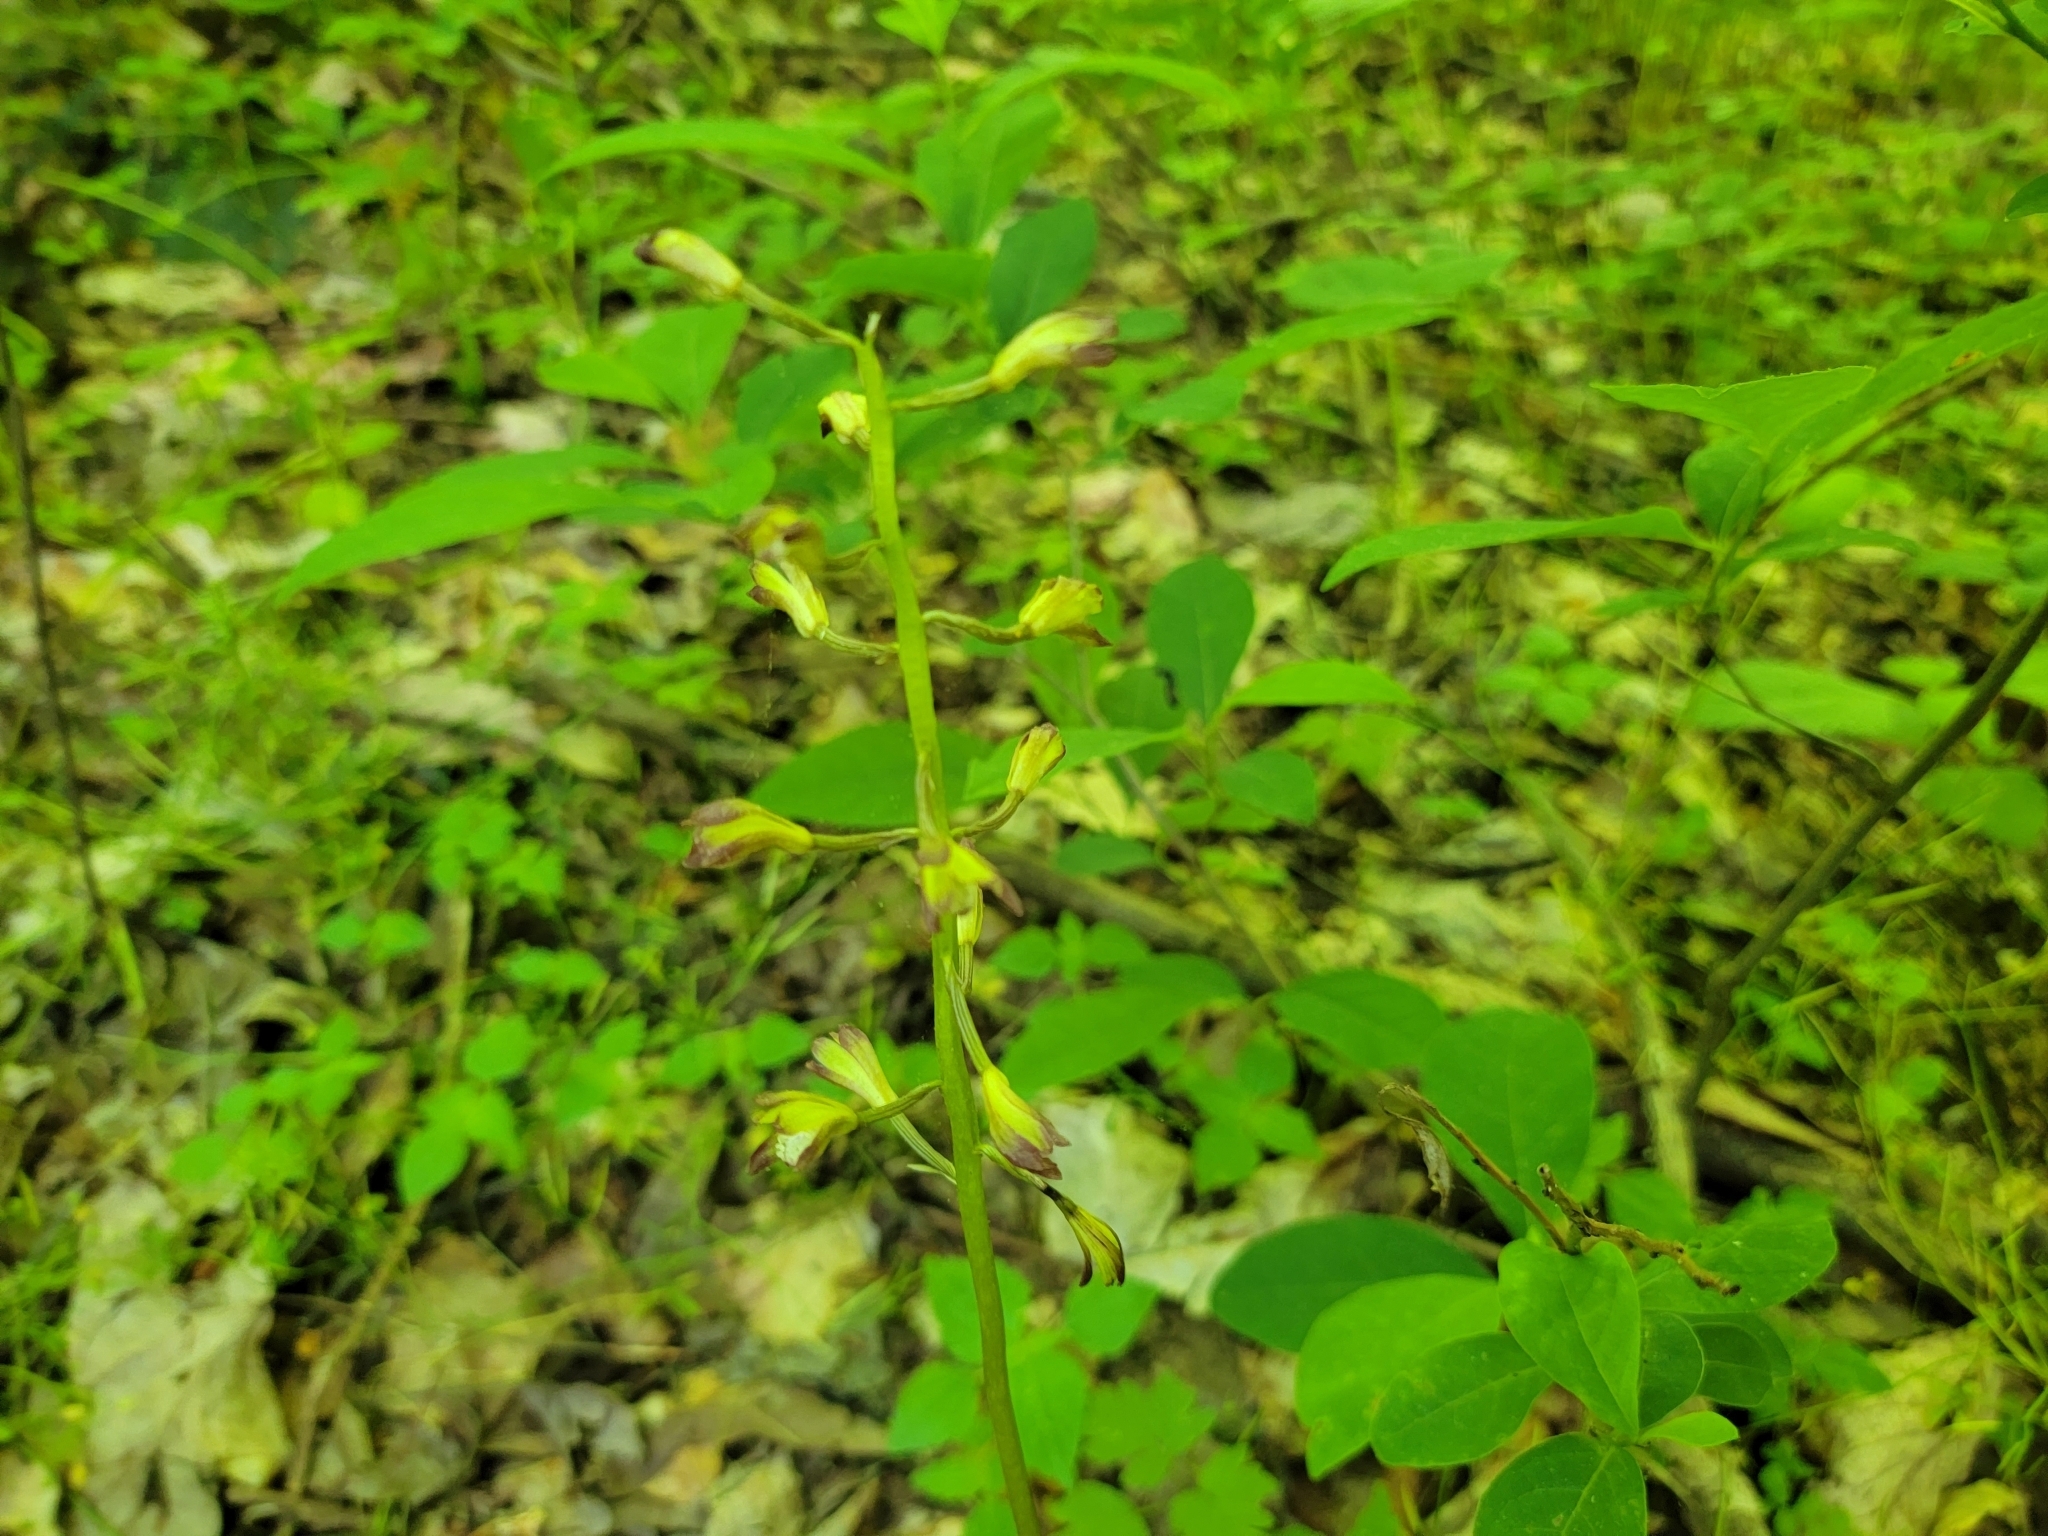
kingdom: Plantae
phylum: Tracheophyta
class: Liliopsida
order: Asparagales
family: Orchidaceae
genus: Aplectrum
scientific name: Aplectrum hyemale
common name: Adam-and-eve
